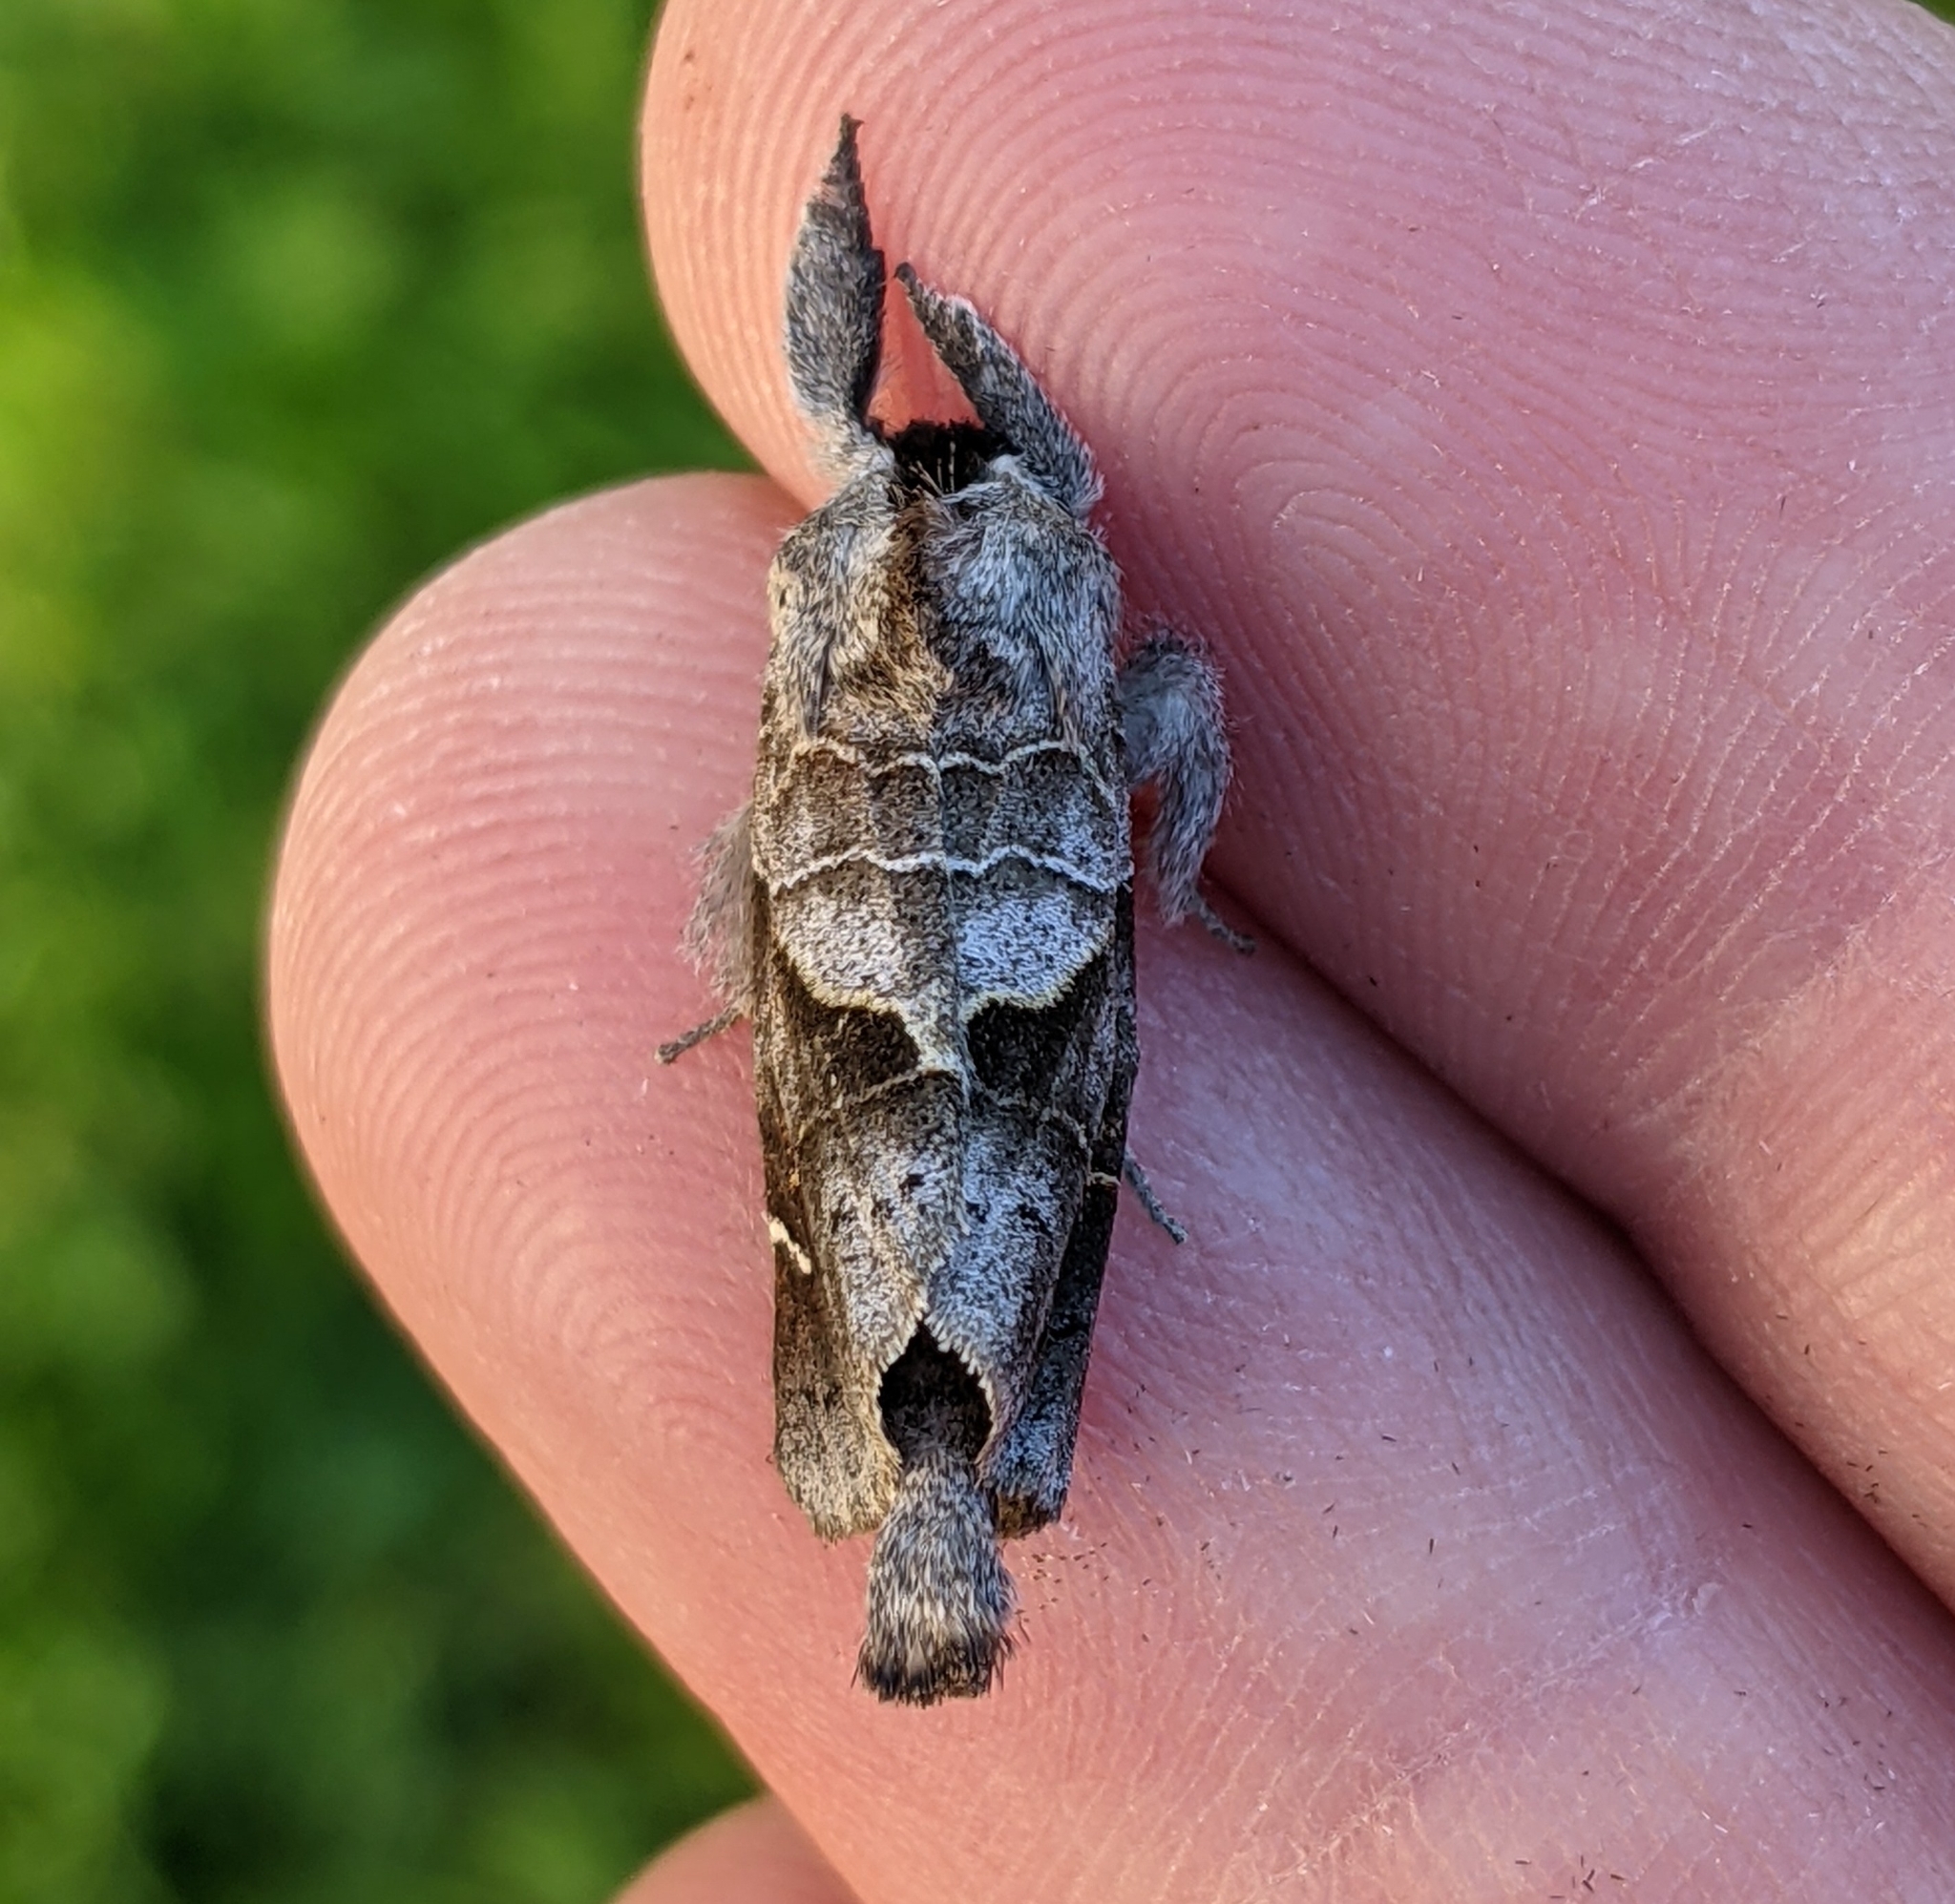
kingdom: Animalia
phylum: Arthropoda
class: Insecta
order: Lepidoptera
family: Notodontidae
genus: Clostera
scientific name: Clostera apicalis
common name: Apical prominent
